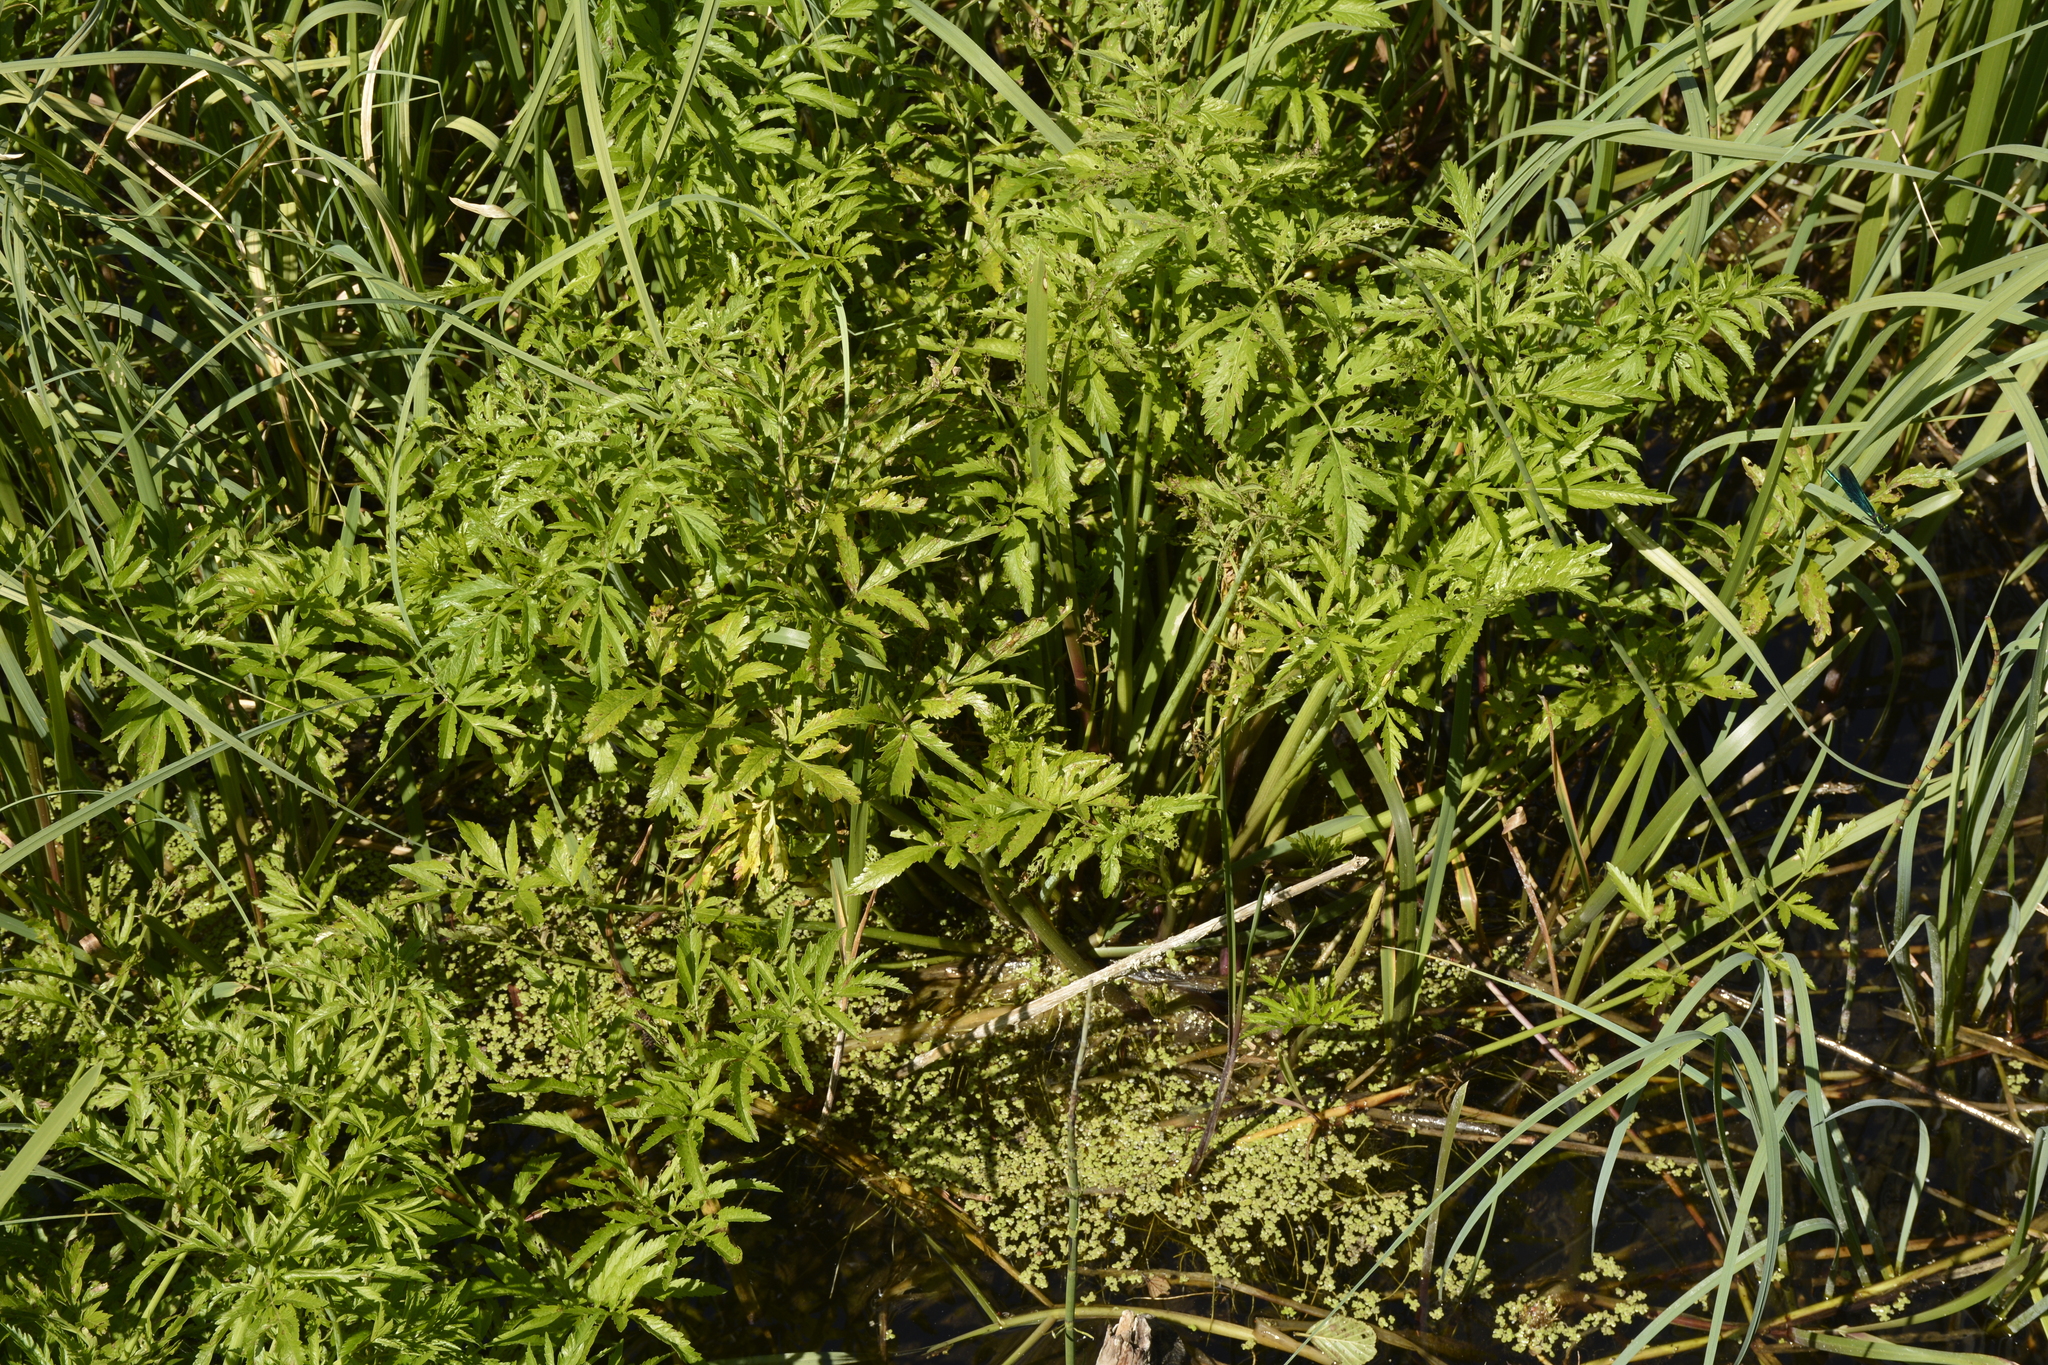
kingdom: Plantae
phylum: Tracheophyta
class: Magnoliopsida
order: Apiales
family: Apiaceae
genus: Cicuta
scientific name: Cicuta virosa
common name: Cowbane
